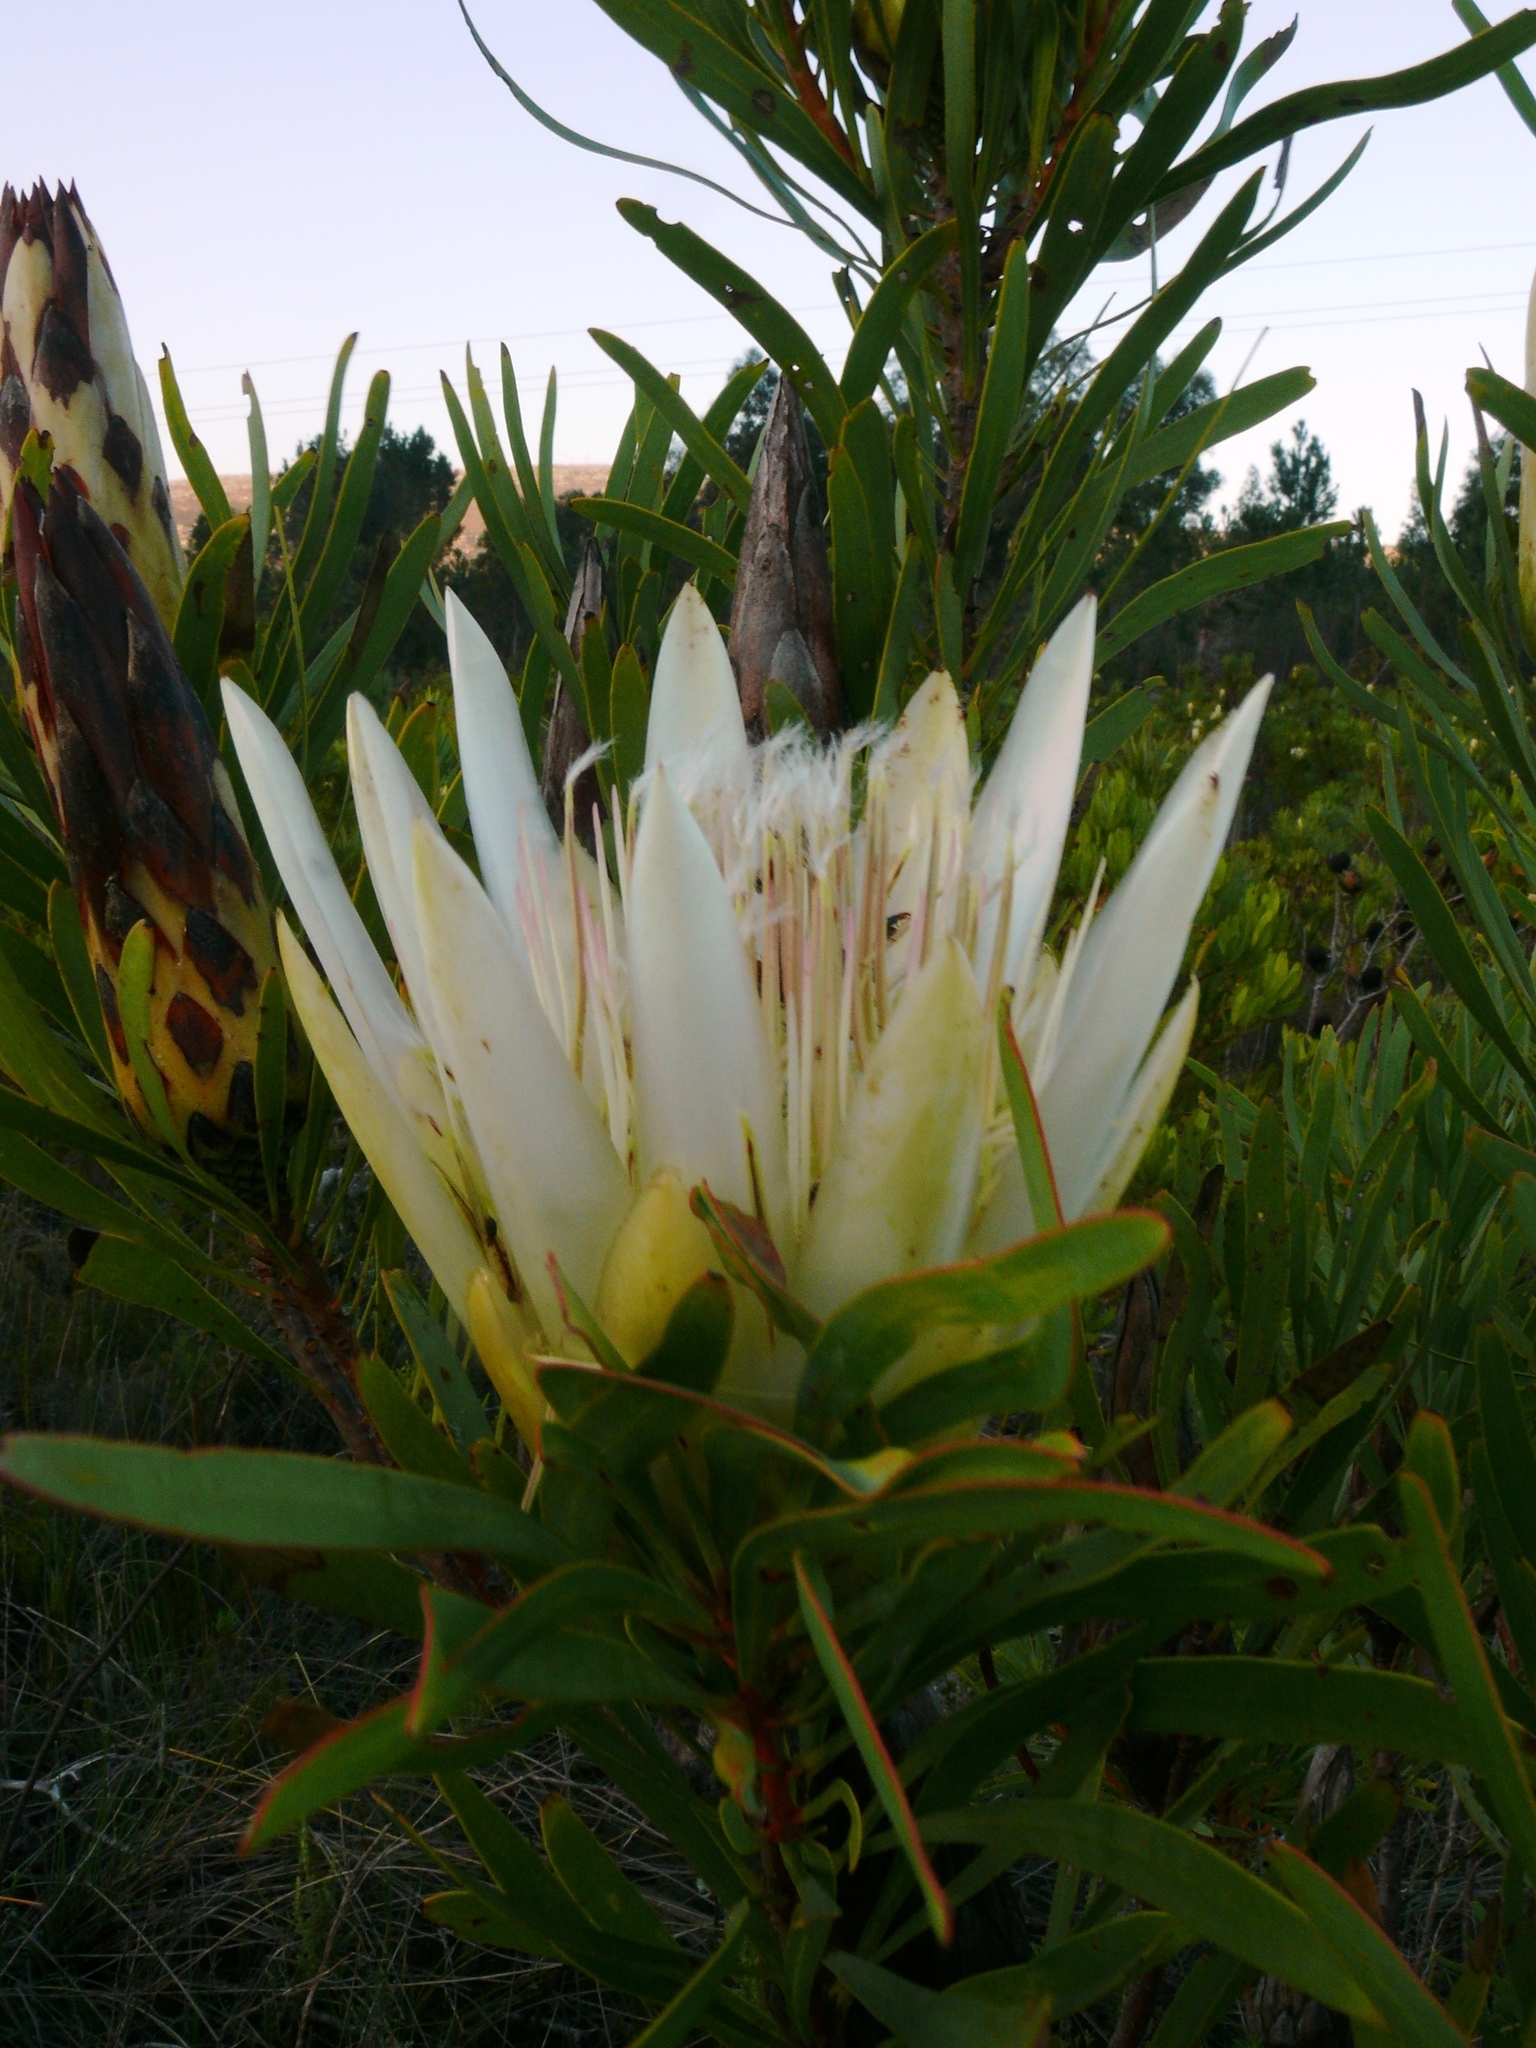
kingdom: Plantae
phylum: Tracheophyta
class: Magnoliopsida
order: Proteales
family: Proteaceae
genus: Protea
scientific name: Protea repens
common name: Sugarbush
